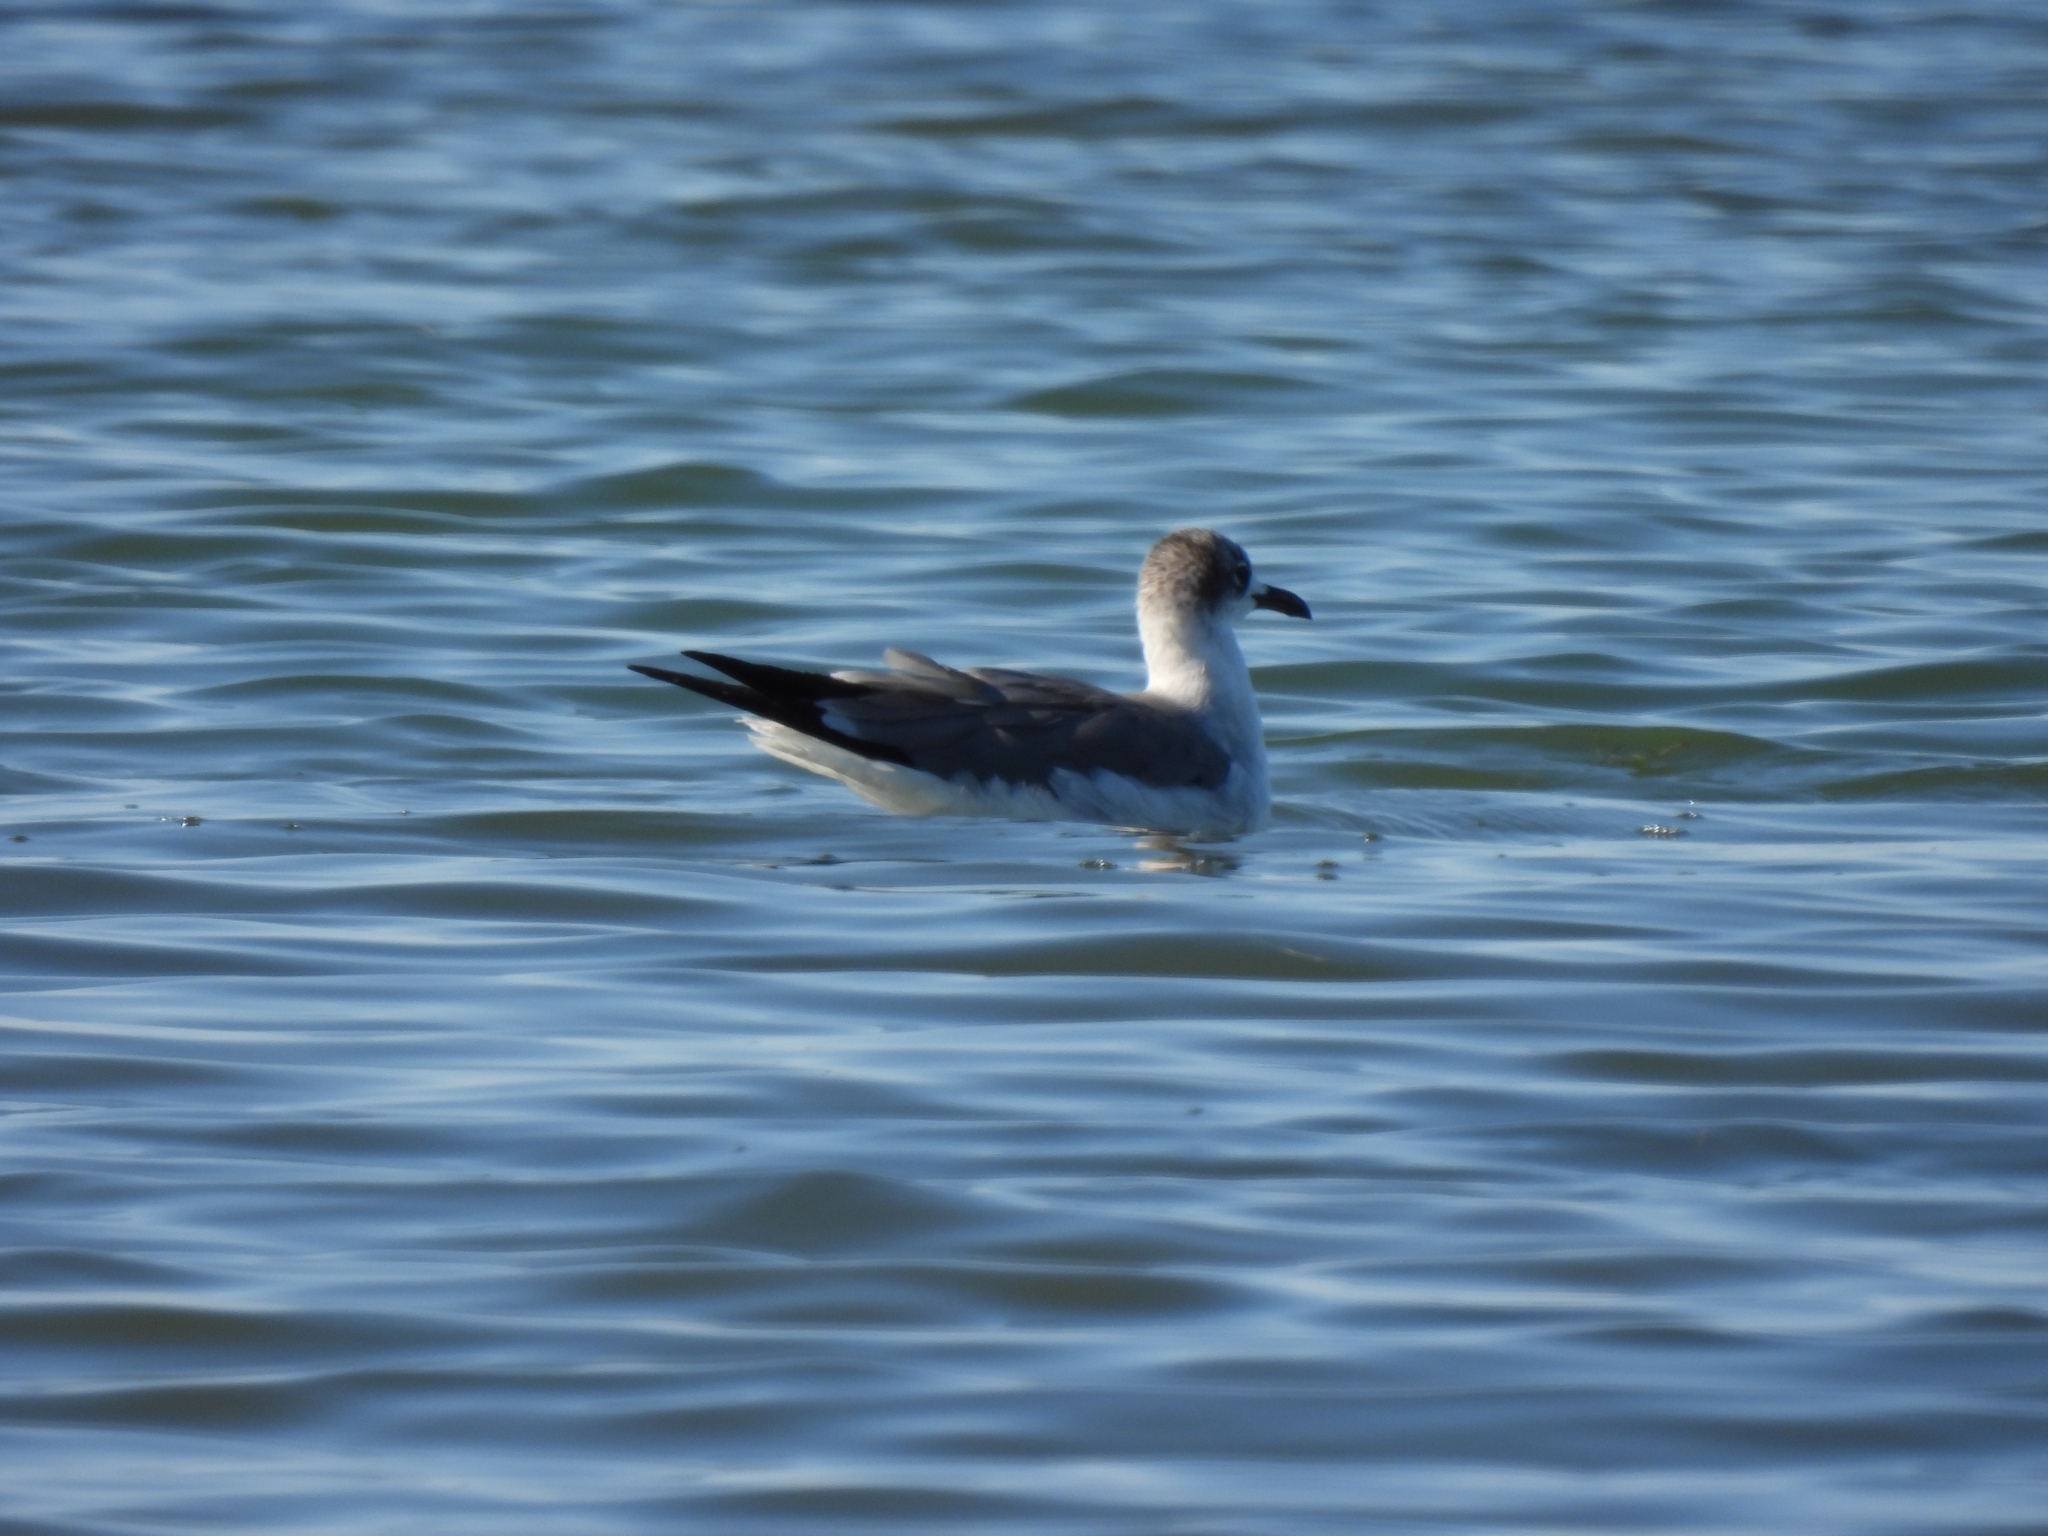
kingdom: Animalia
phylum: Chordata
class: Aves
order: Charadriiformes
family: Laridae
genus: Leucophaeus
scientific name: Leucophaeus atricilla
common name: Laughing gull
